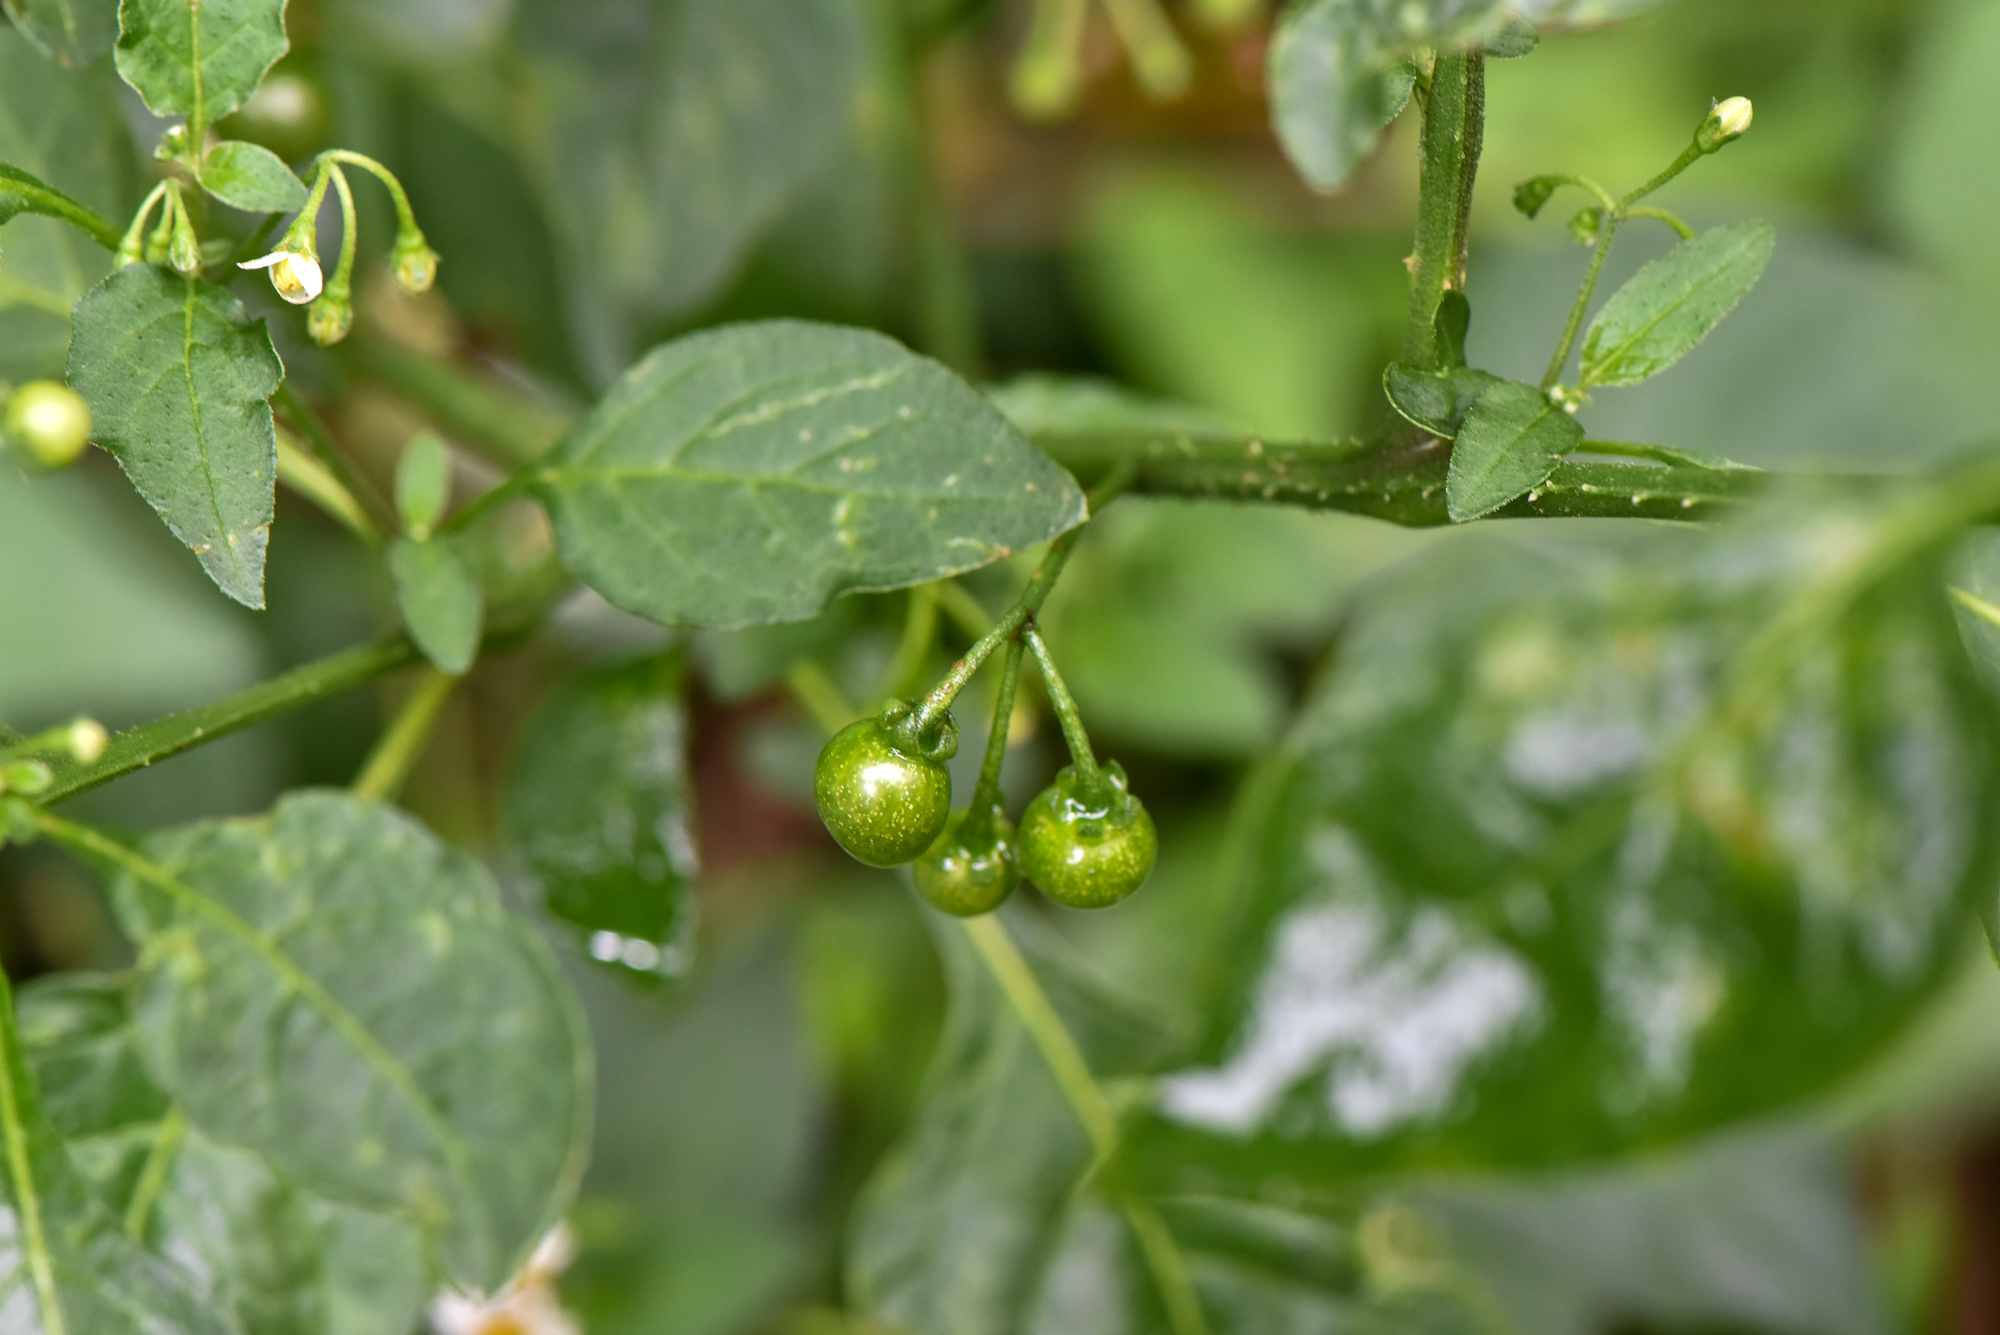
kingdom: Plantae
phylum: Tracheophyta
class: Magnoliopsida
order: Solanales
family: Solanaceae
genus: Solanum
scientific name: Solanum americanum
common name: American black nightshade
